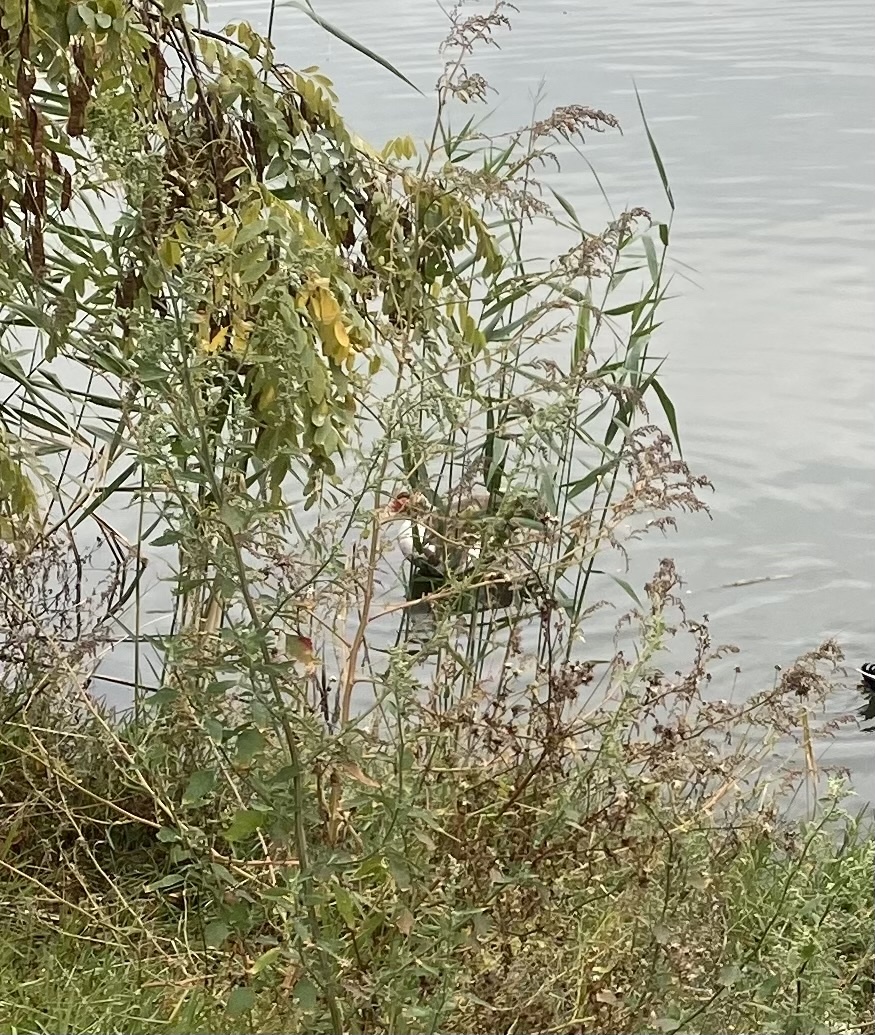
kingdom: Animalia
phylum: Chordata
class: Aves
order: Anseriformes
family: Anatidae
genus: Cairina
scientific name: Cairina moschata
